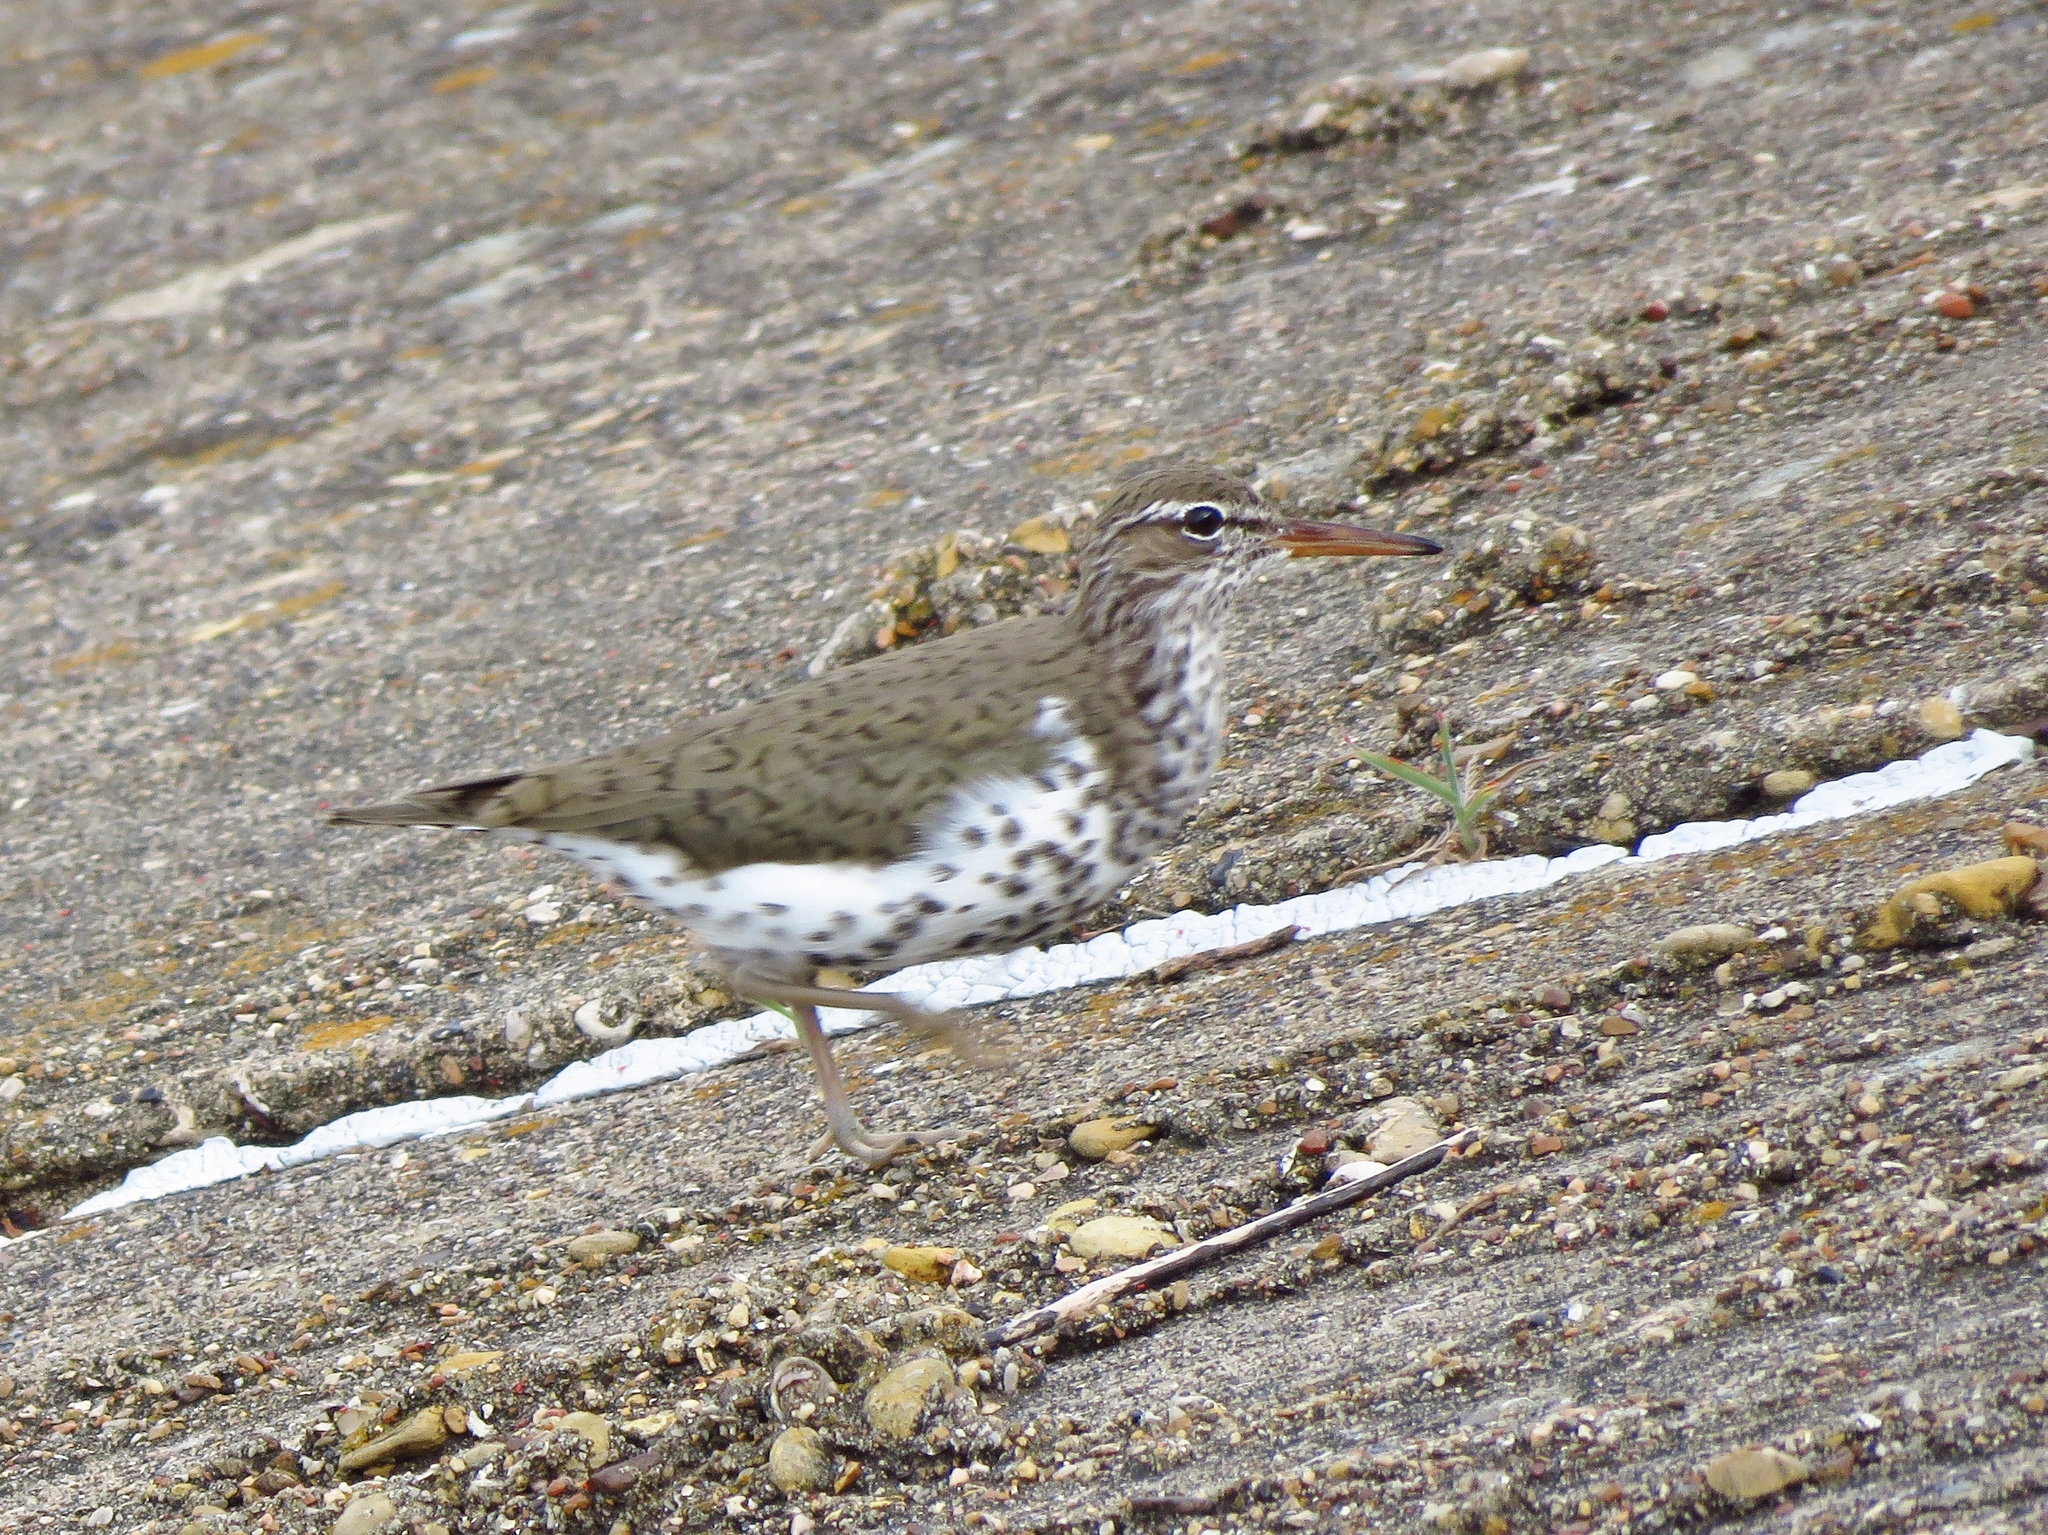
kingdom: Animalia
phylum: Chordata
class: Aves
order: Charadriiformes
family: Scolopacidae
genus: Actitis
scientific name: Actitis macularius
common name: Spotted sandpiper
